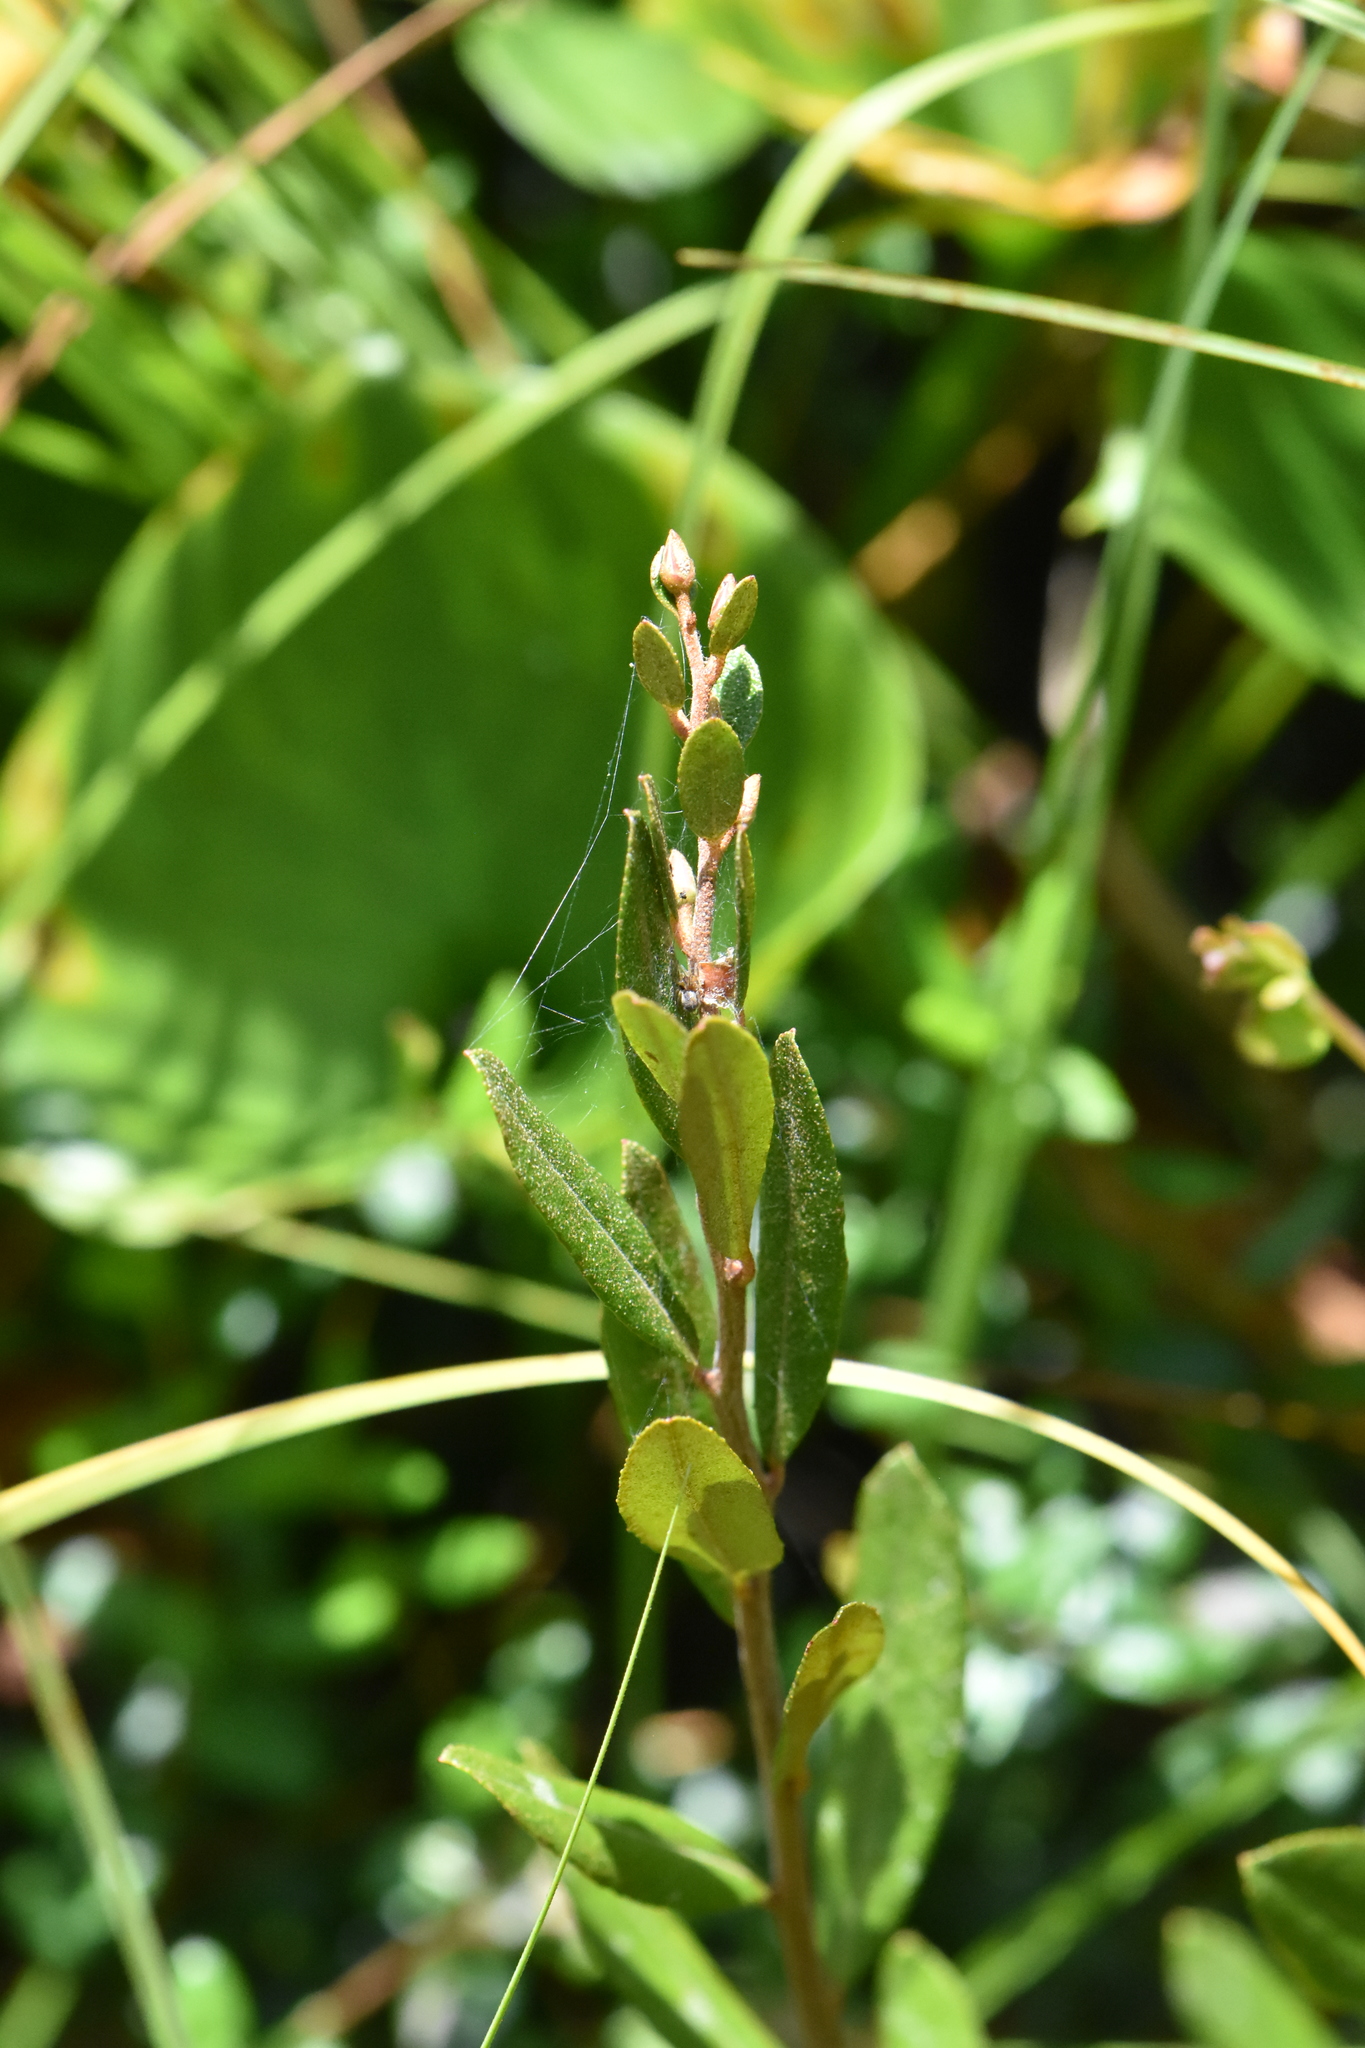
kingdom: Plantae
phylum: Tracheophyta
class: Magnoliopsida
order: Ericales
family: Ericaceae
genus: Chamaedaphne
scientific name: Chamaedaphne calyculata
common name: Leatherleaf
